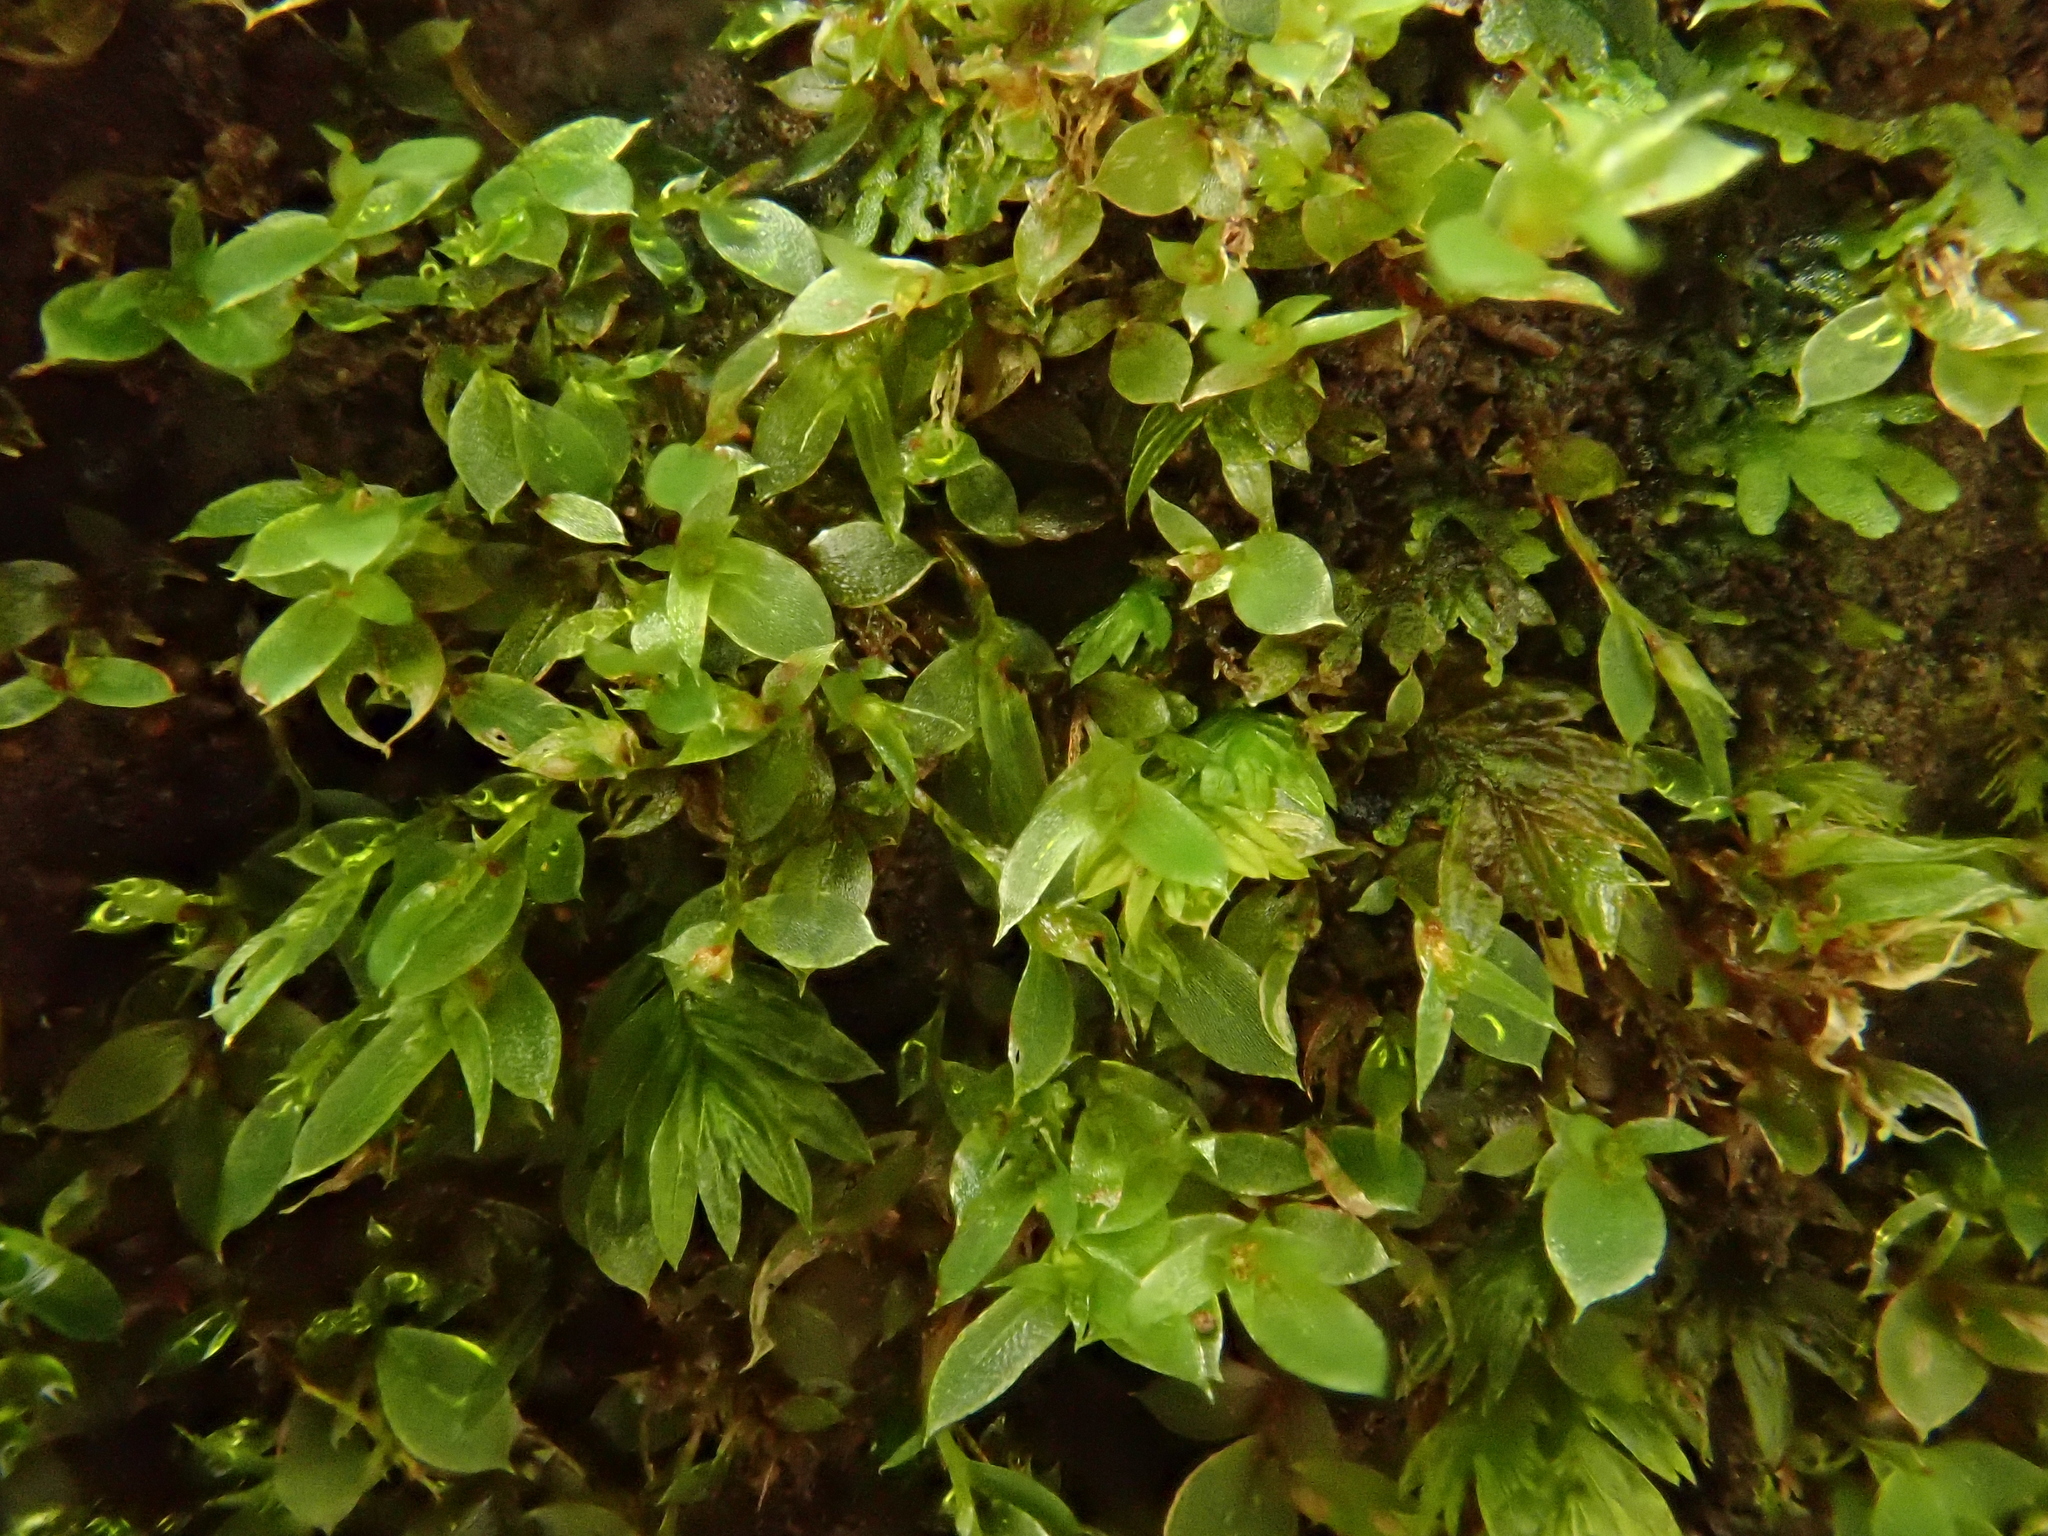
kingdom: Plantae
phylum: Bryophyta
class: Bryopsida
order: Bryales
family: Mniaceae
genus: Epipterygium
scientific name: Epipterygium tozeri
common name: Tozer's thread-moss
